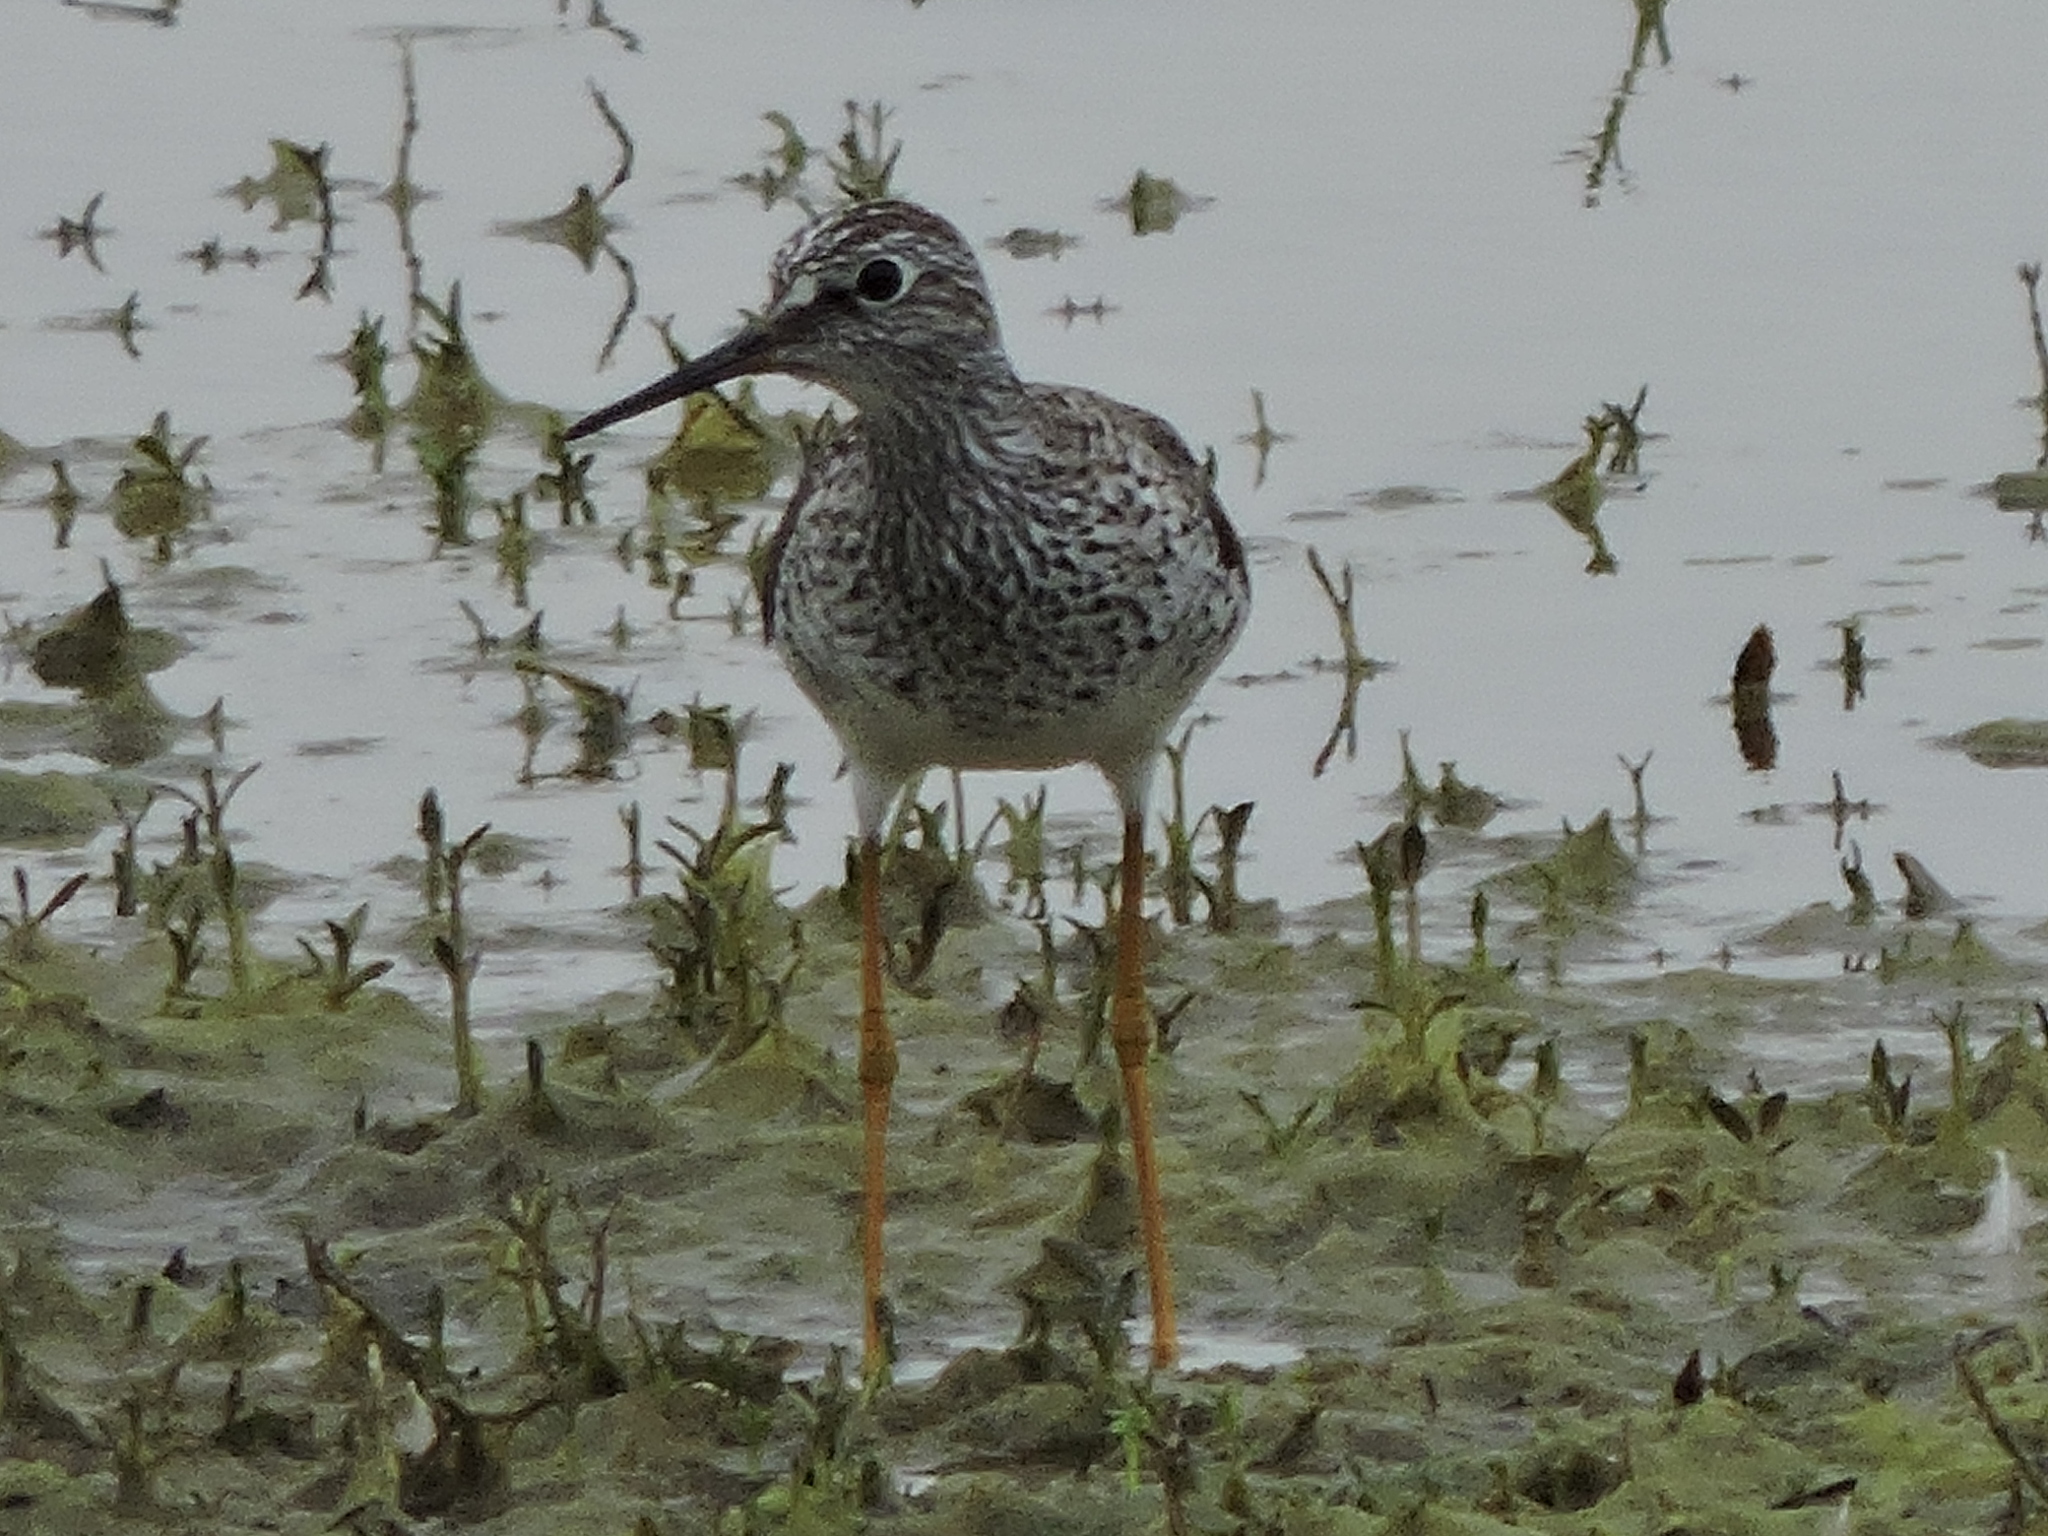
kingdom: Animalia
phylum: Chordata
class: Aves
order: Charadriiformes
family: Scolopacidae
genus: Tringa
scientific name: Tringa flavipes
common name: Lesser yellowlegs
